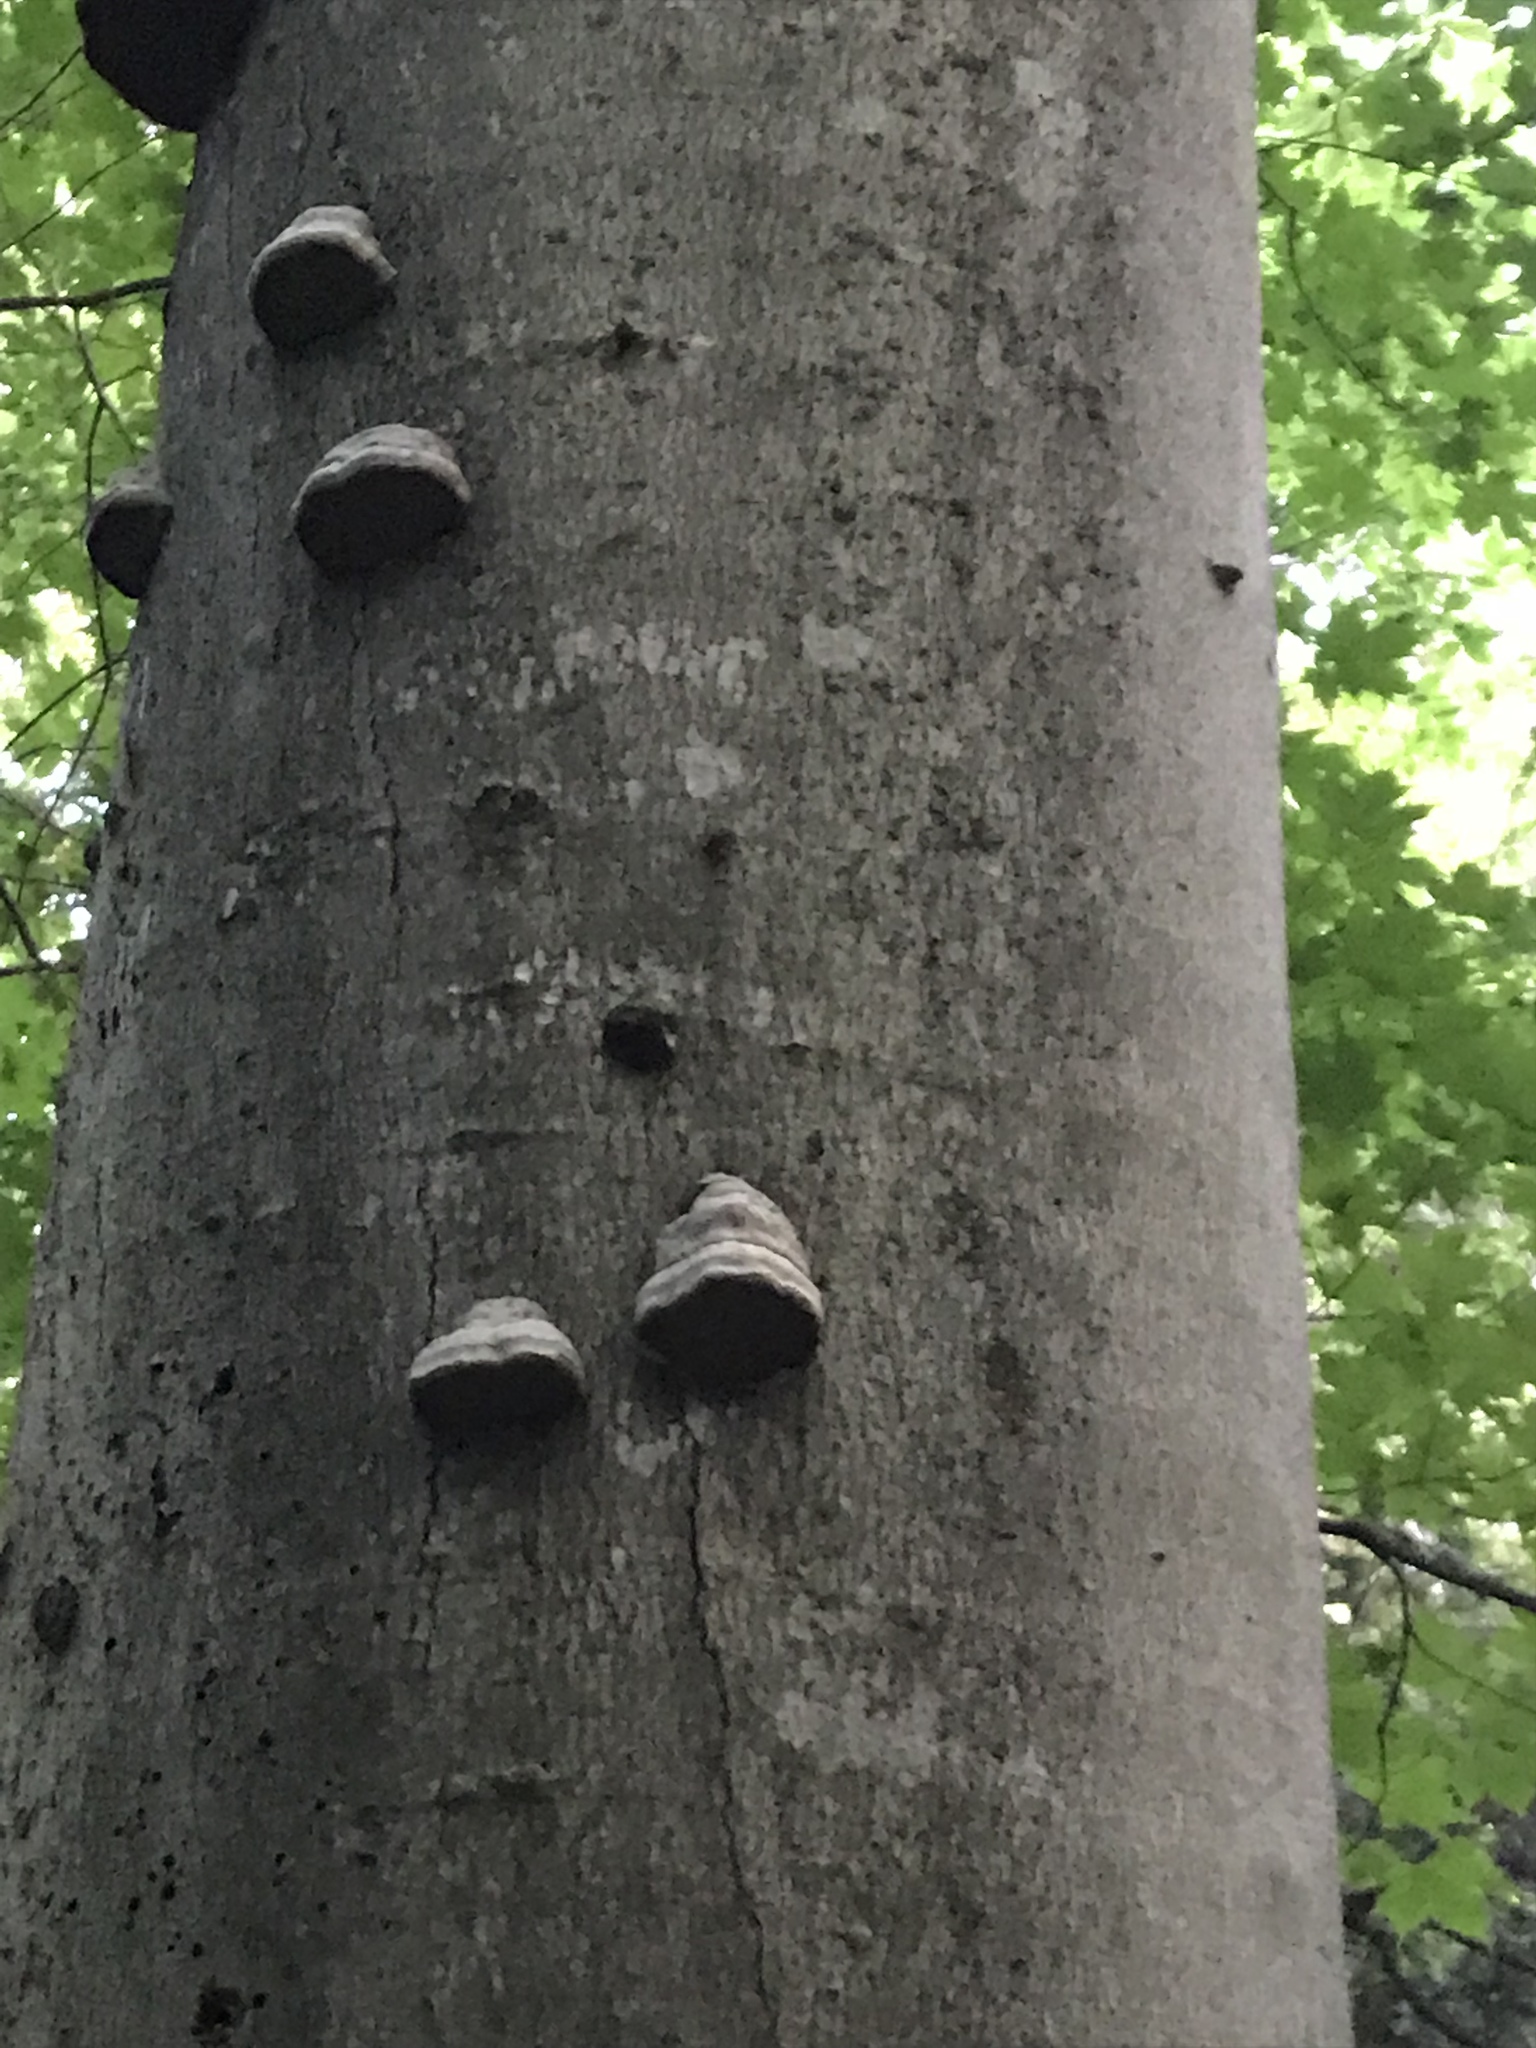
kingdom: Fungi
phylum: Basidiomycota
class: Agaricomycetes
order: Polyporales
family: Polyporaceae
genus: Fomes
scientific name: Fomes fomentarius
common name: Hoof fungus
